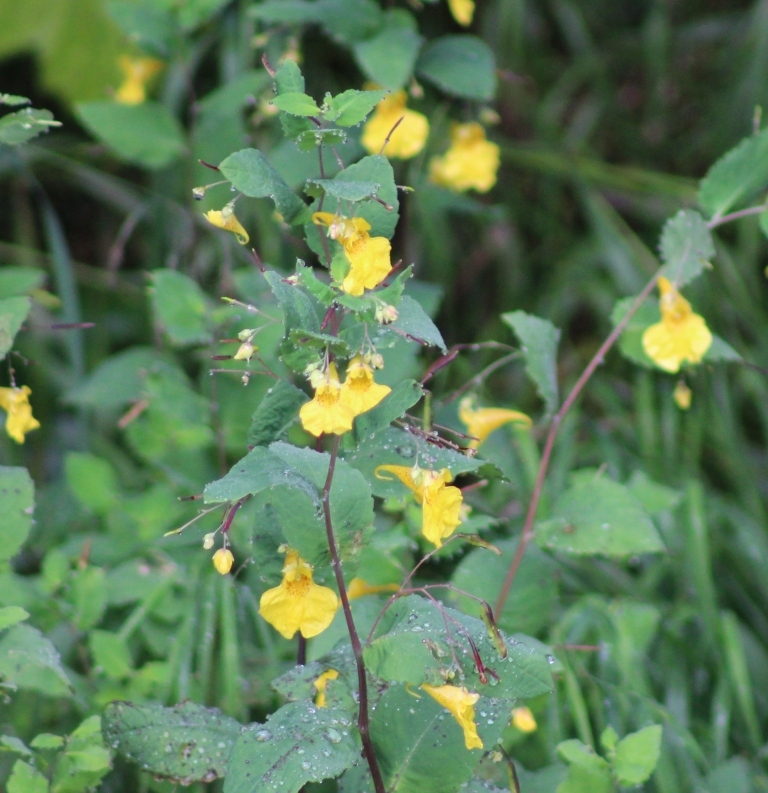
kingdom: Plantae
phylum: Tracheophyta
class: Magnoliopsida
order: Ericales
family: Balsaminaceae
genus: Impatiens
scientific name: Impatiens noli-tangere
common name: Touch-me-not balsam
